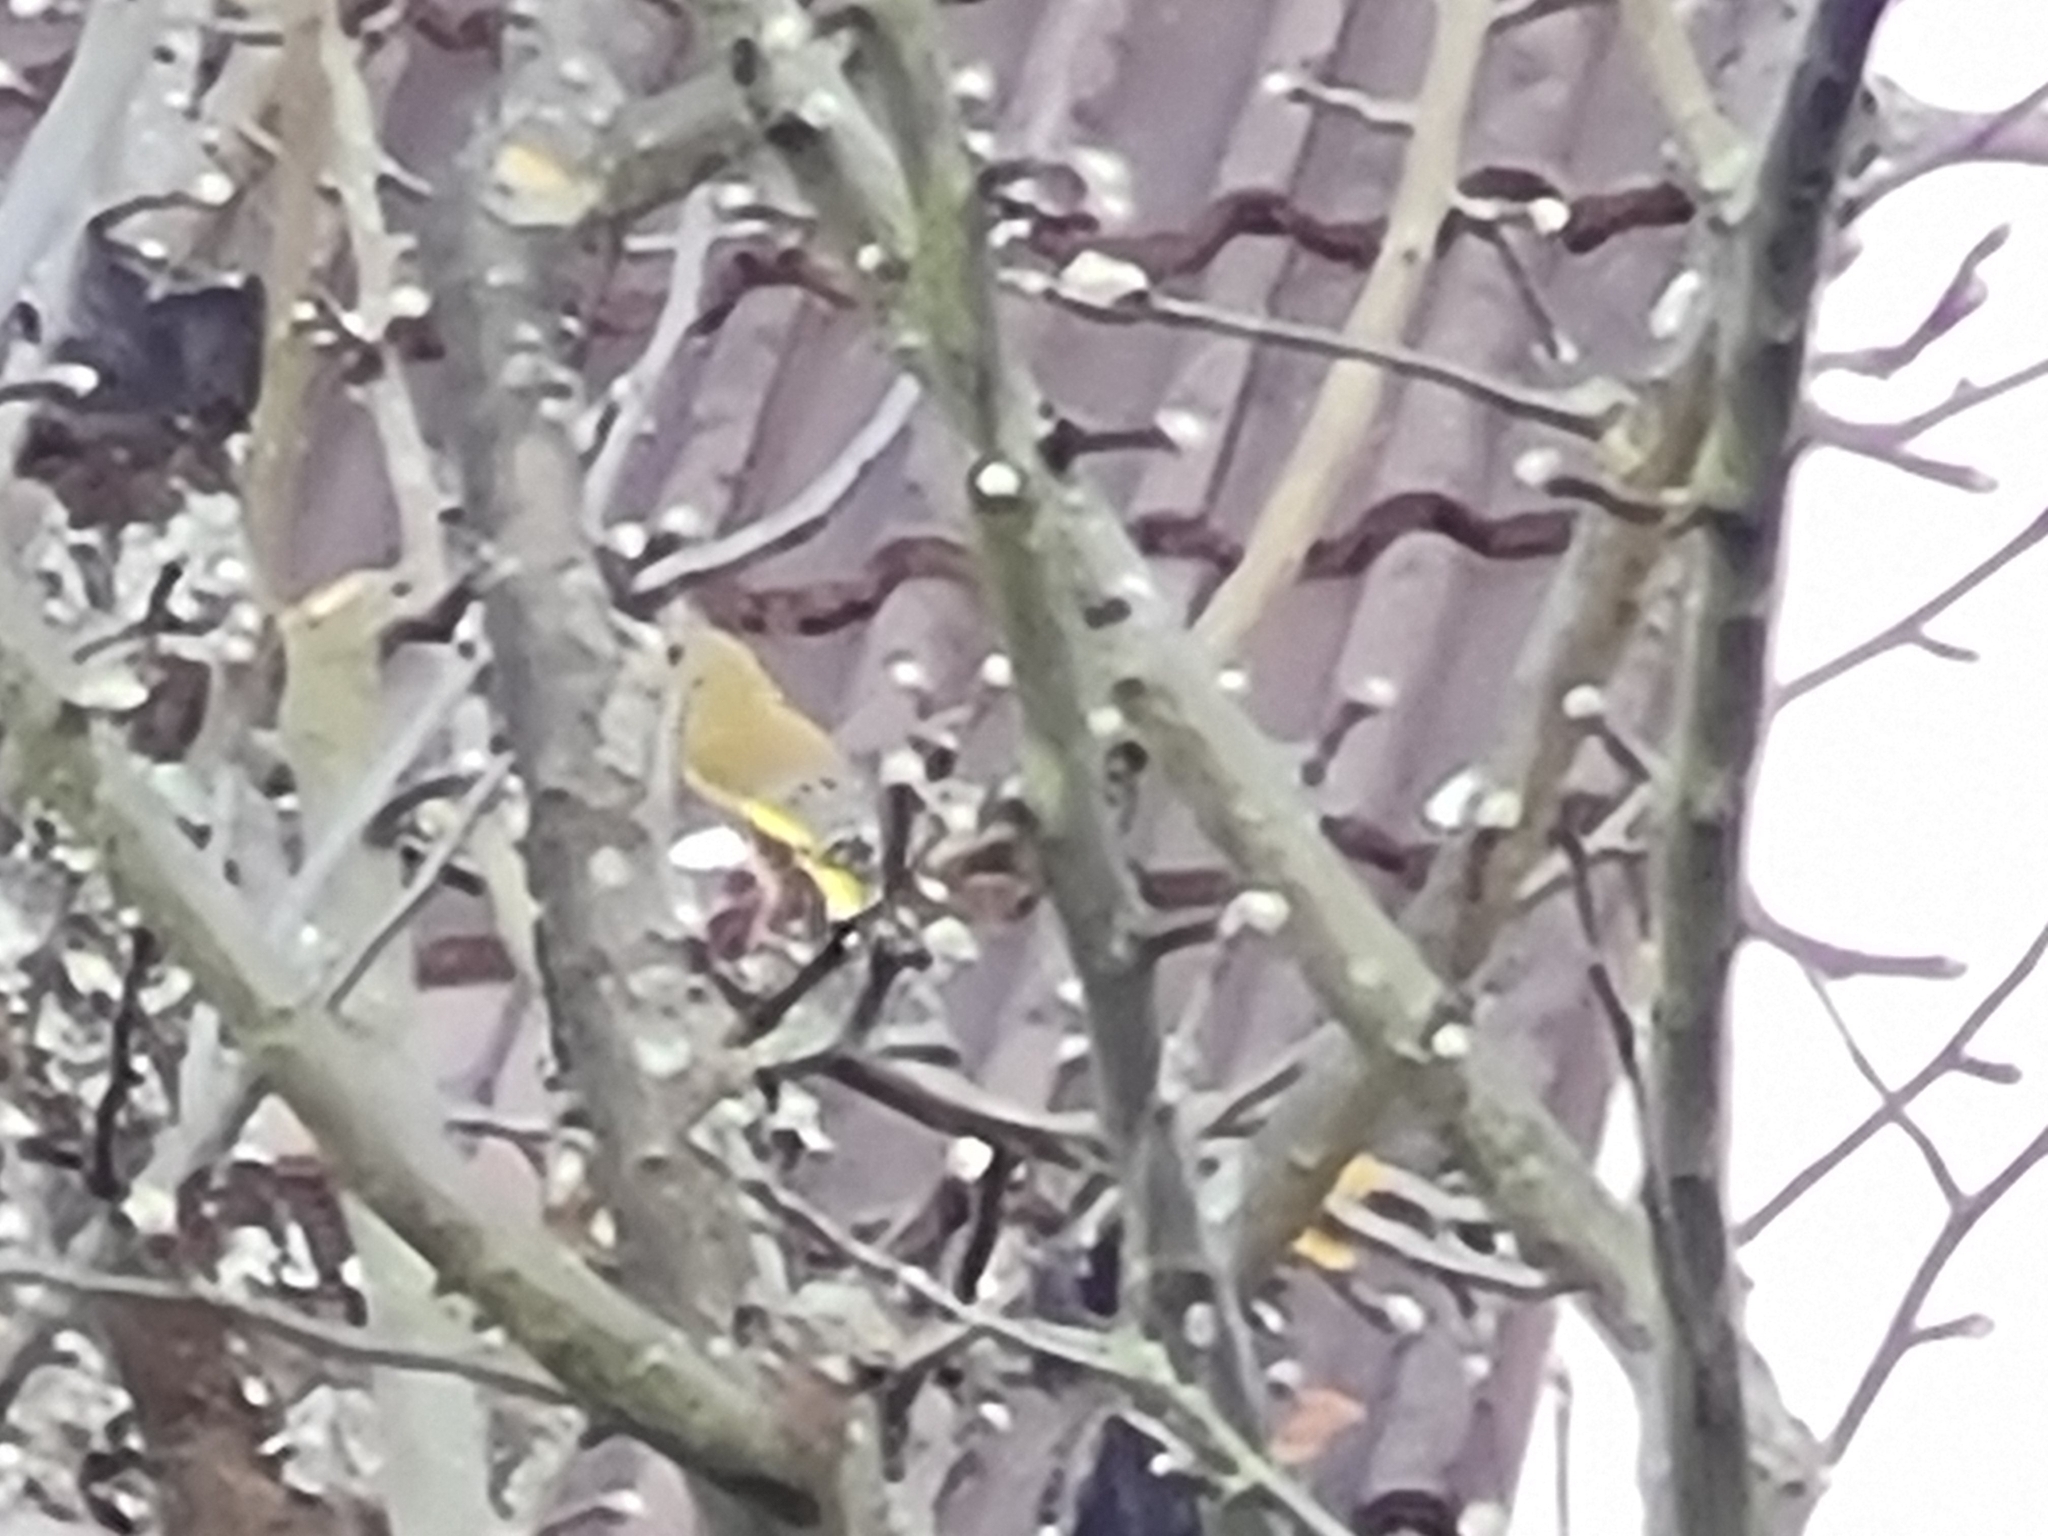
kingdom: Plantae
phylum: Tracheophyta
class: Liliopsida
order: Poales
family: Poaceae
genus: Chloris
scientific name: Chloris chloris
